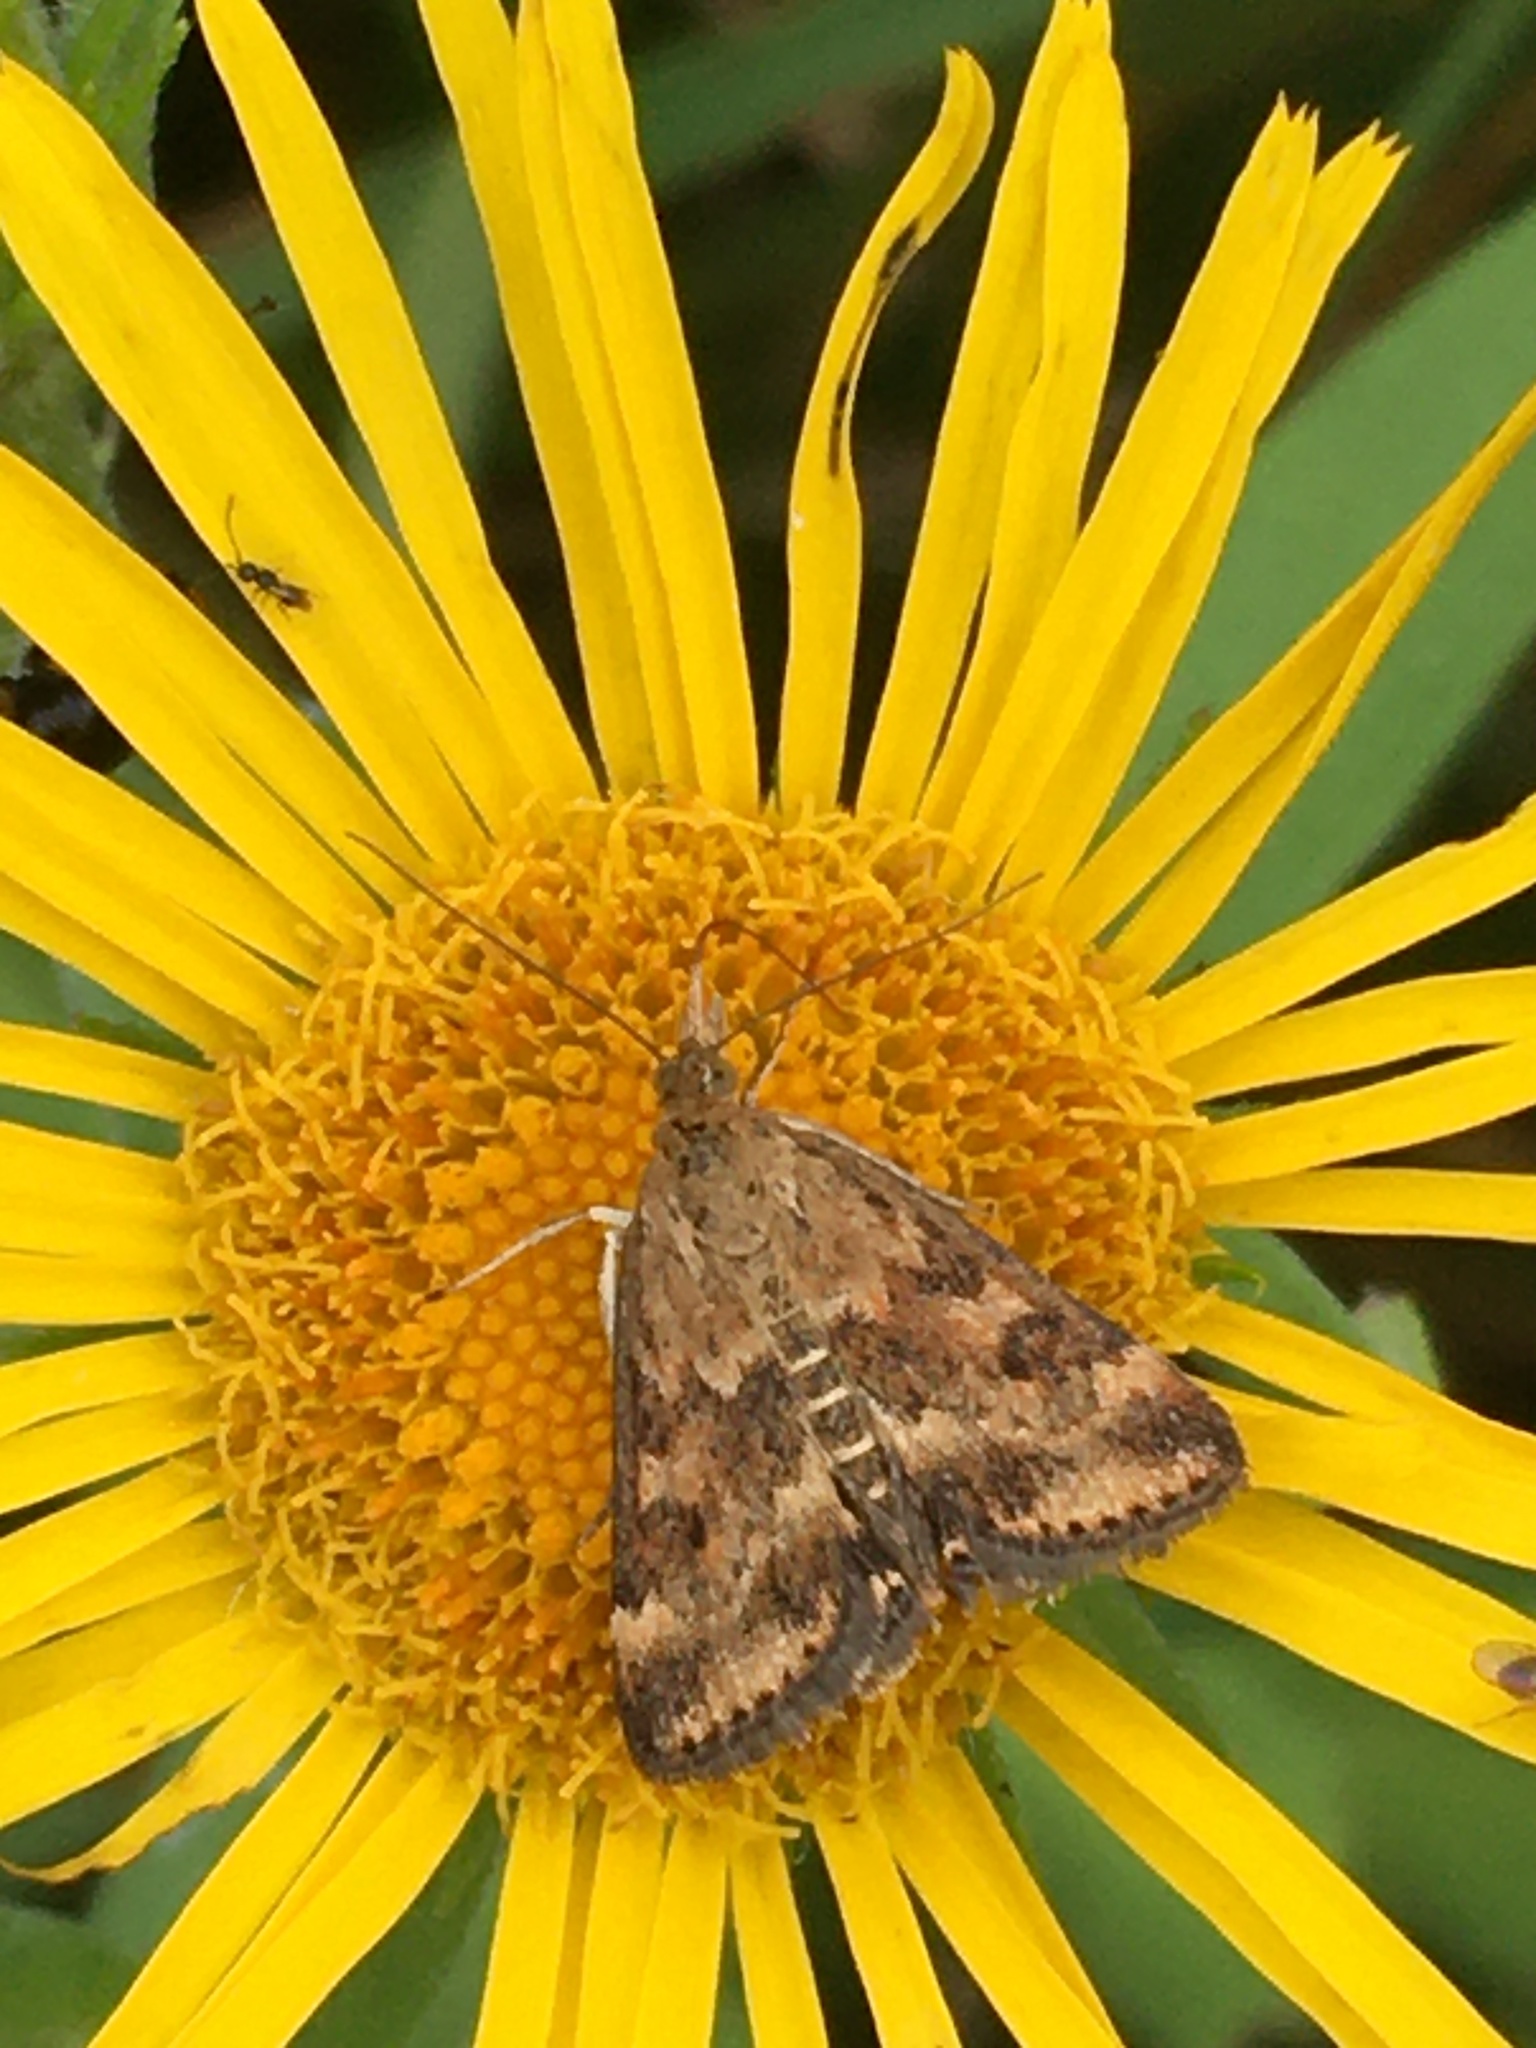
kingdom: Animalia
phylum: Arthropoda
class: Insecta
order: Lepidoptera
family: Crambidae
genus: Pyrausta
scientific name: Pyrausta despicata
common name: Straw-barred pearl
